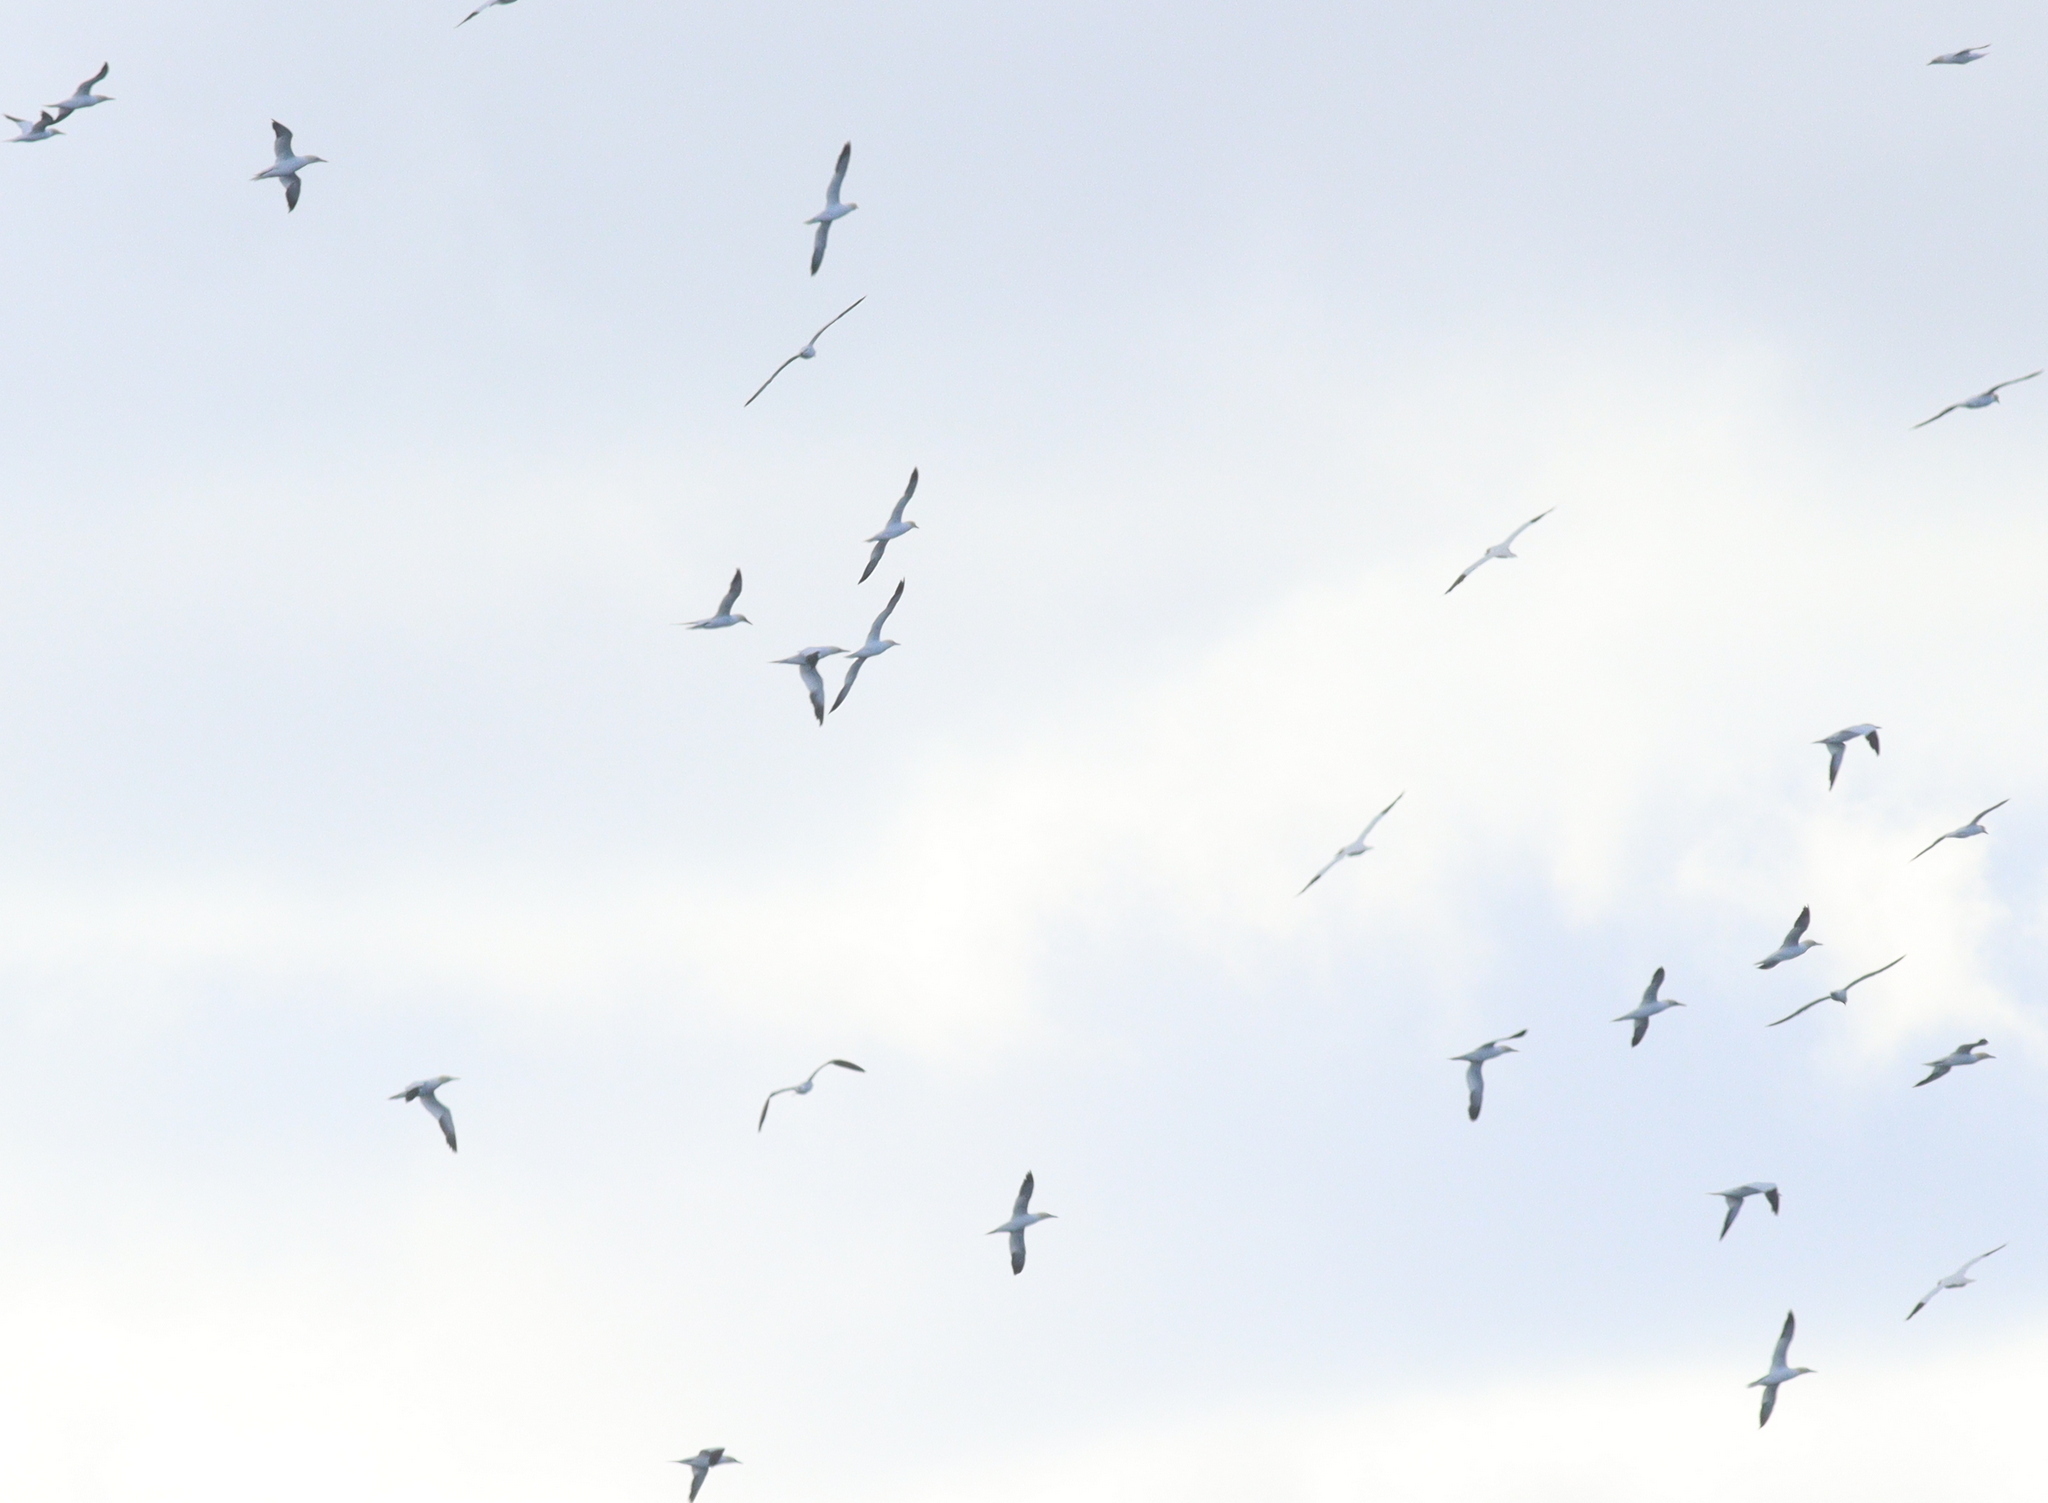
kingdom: Animalia
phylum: Chordata
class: Aves
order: Suliformes
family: Sulidae
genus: Morus
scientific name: Morus bassanus
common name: Northern gannet
